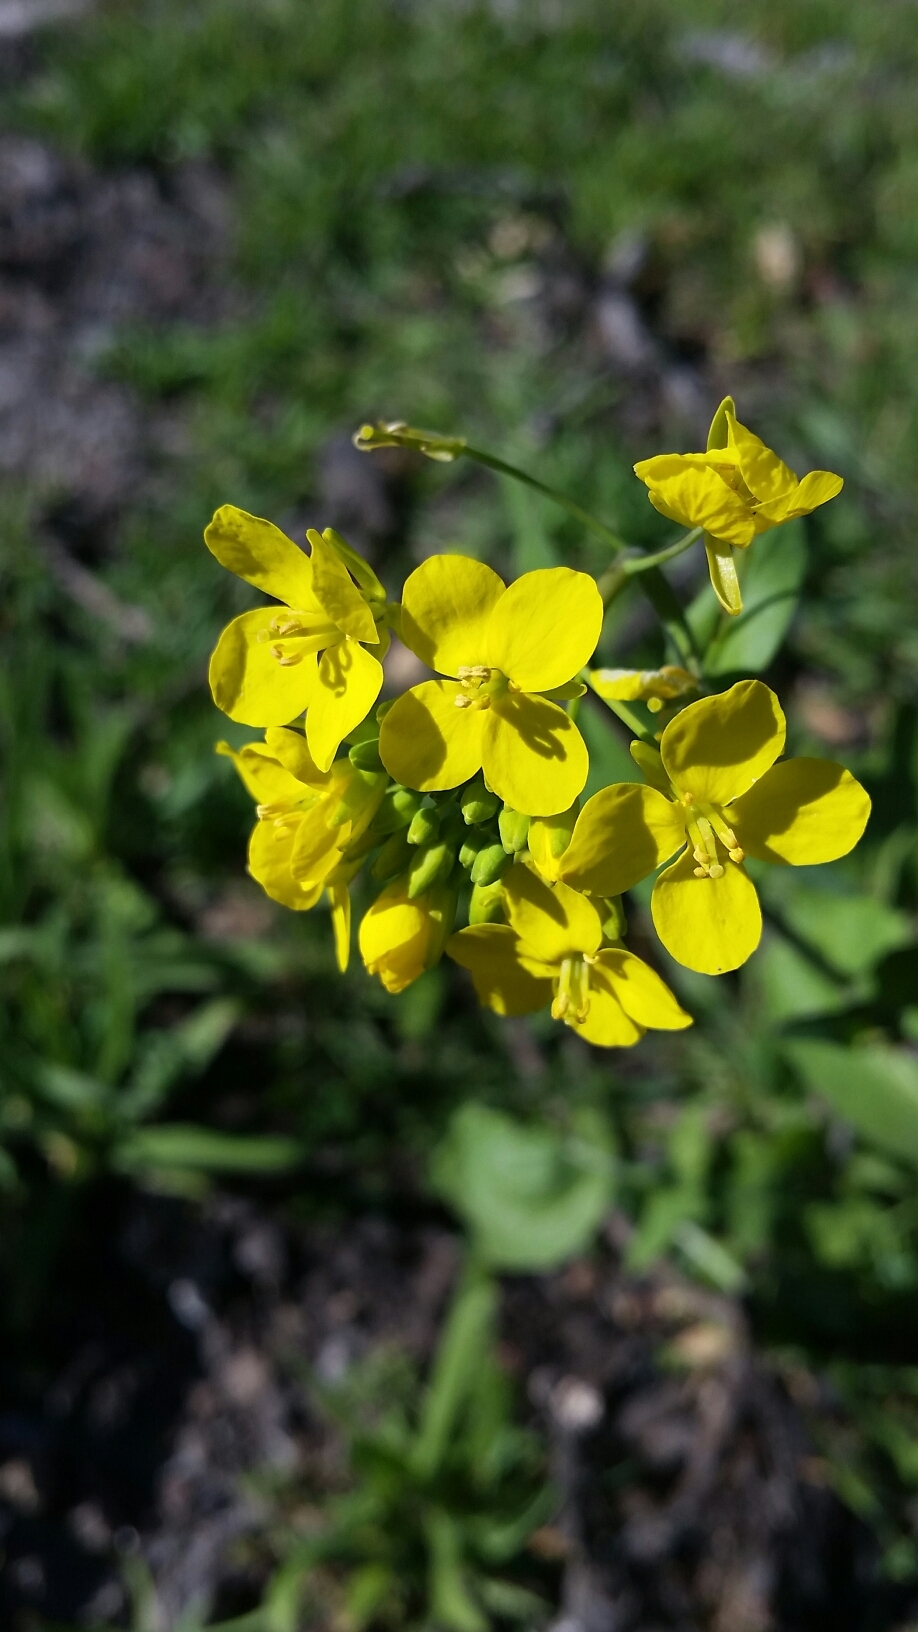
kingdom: Plantae
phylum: Tracheophyta
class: Magnoliopsida
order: Brassicales
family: Brassicaceae
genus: Brassica
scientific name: Brassica rapa
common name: Field mustard
